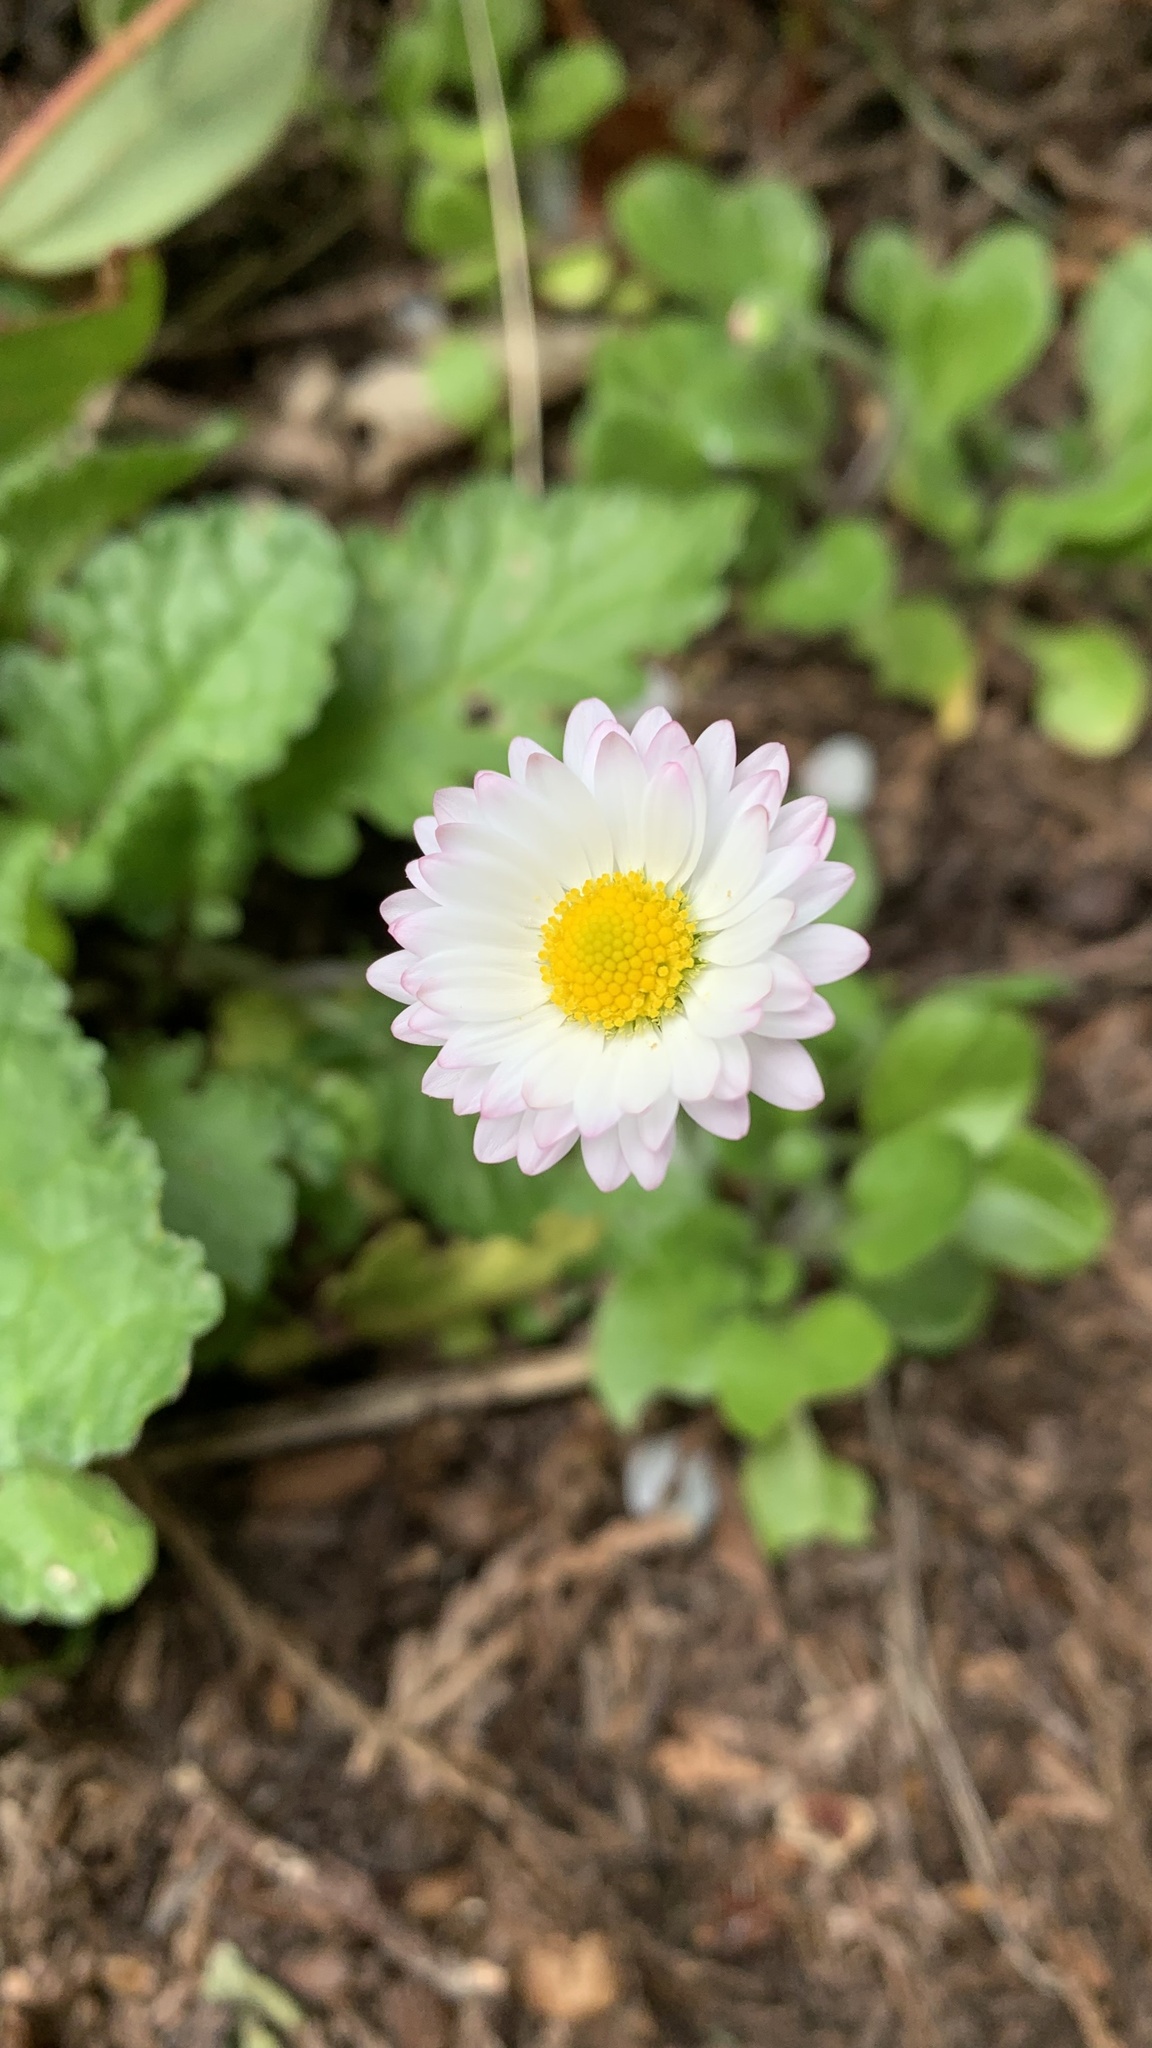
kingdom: Plantae
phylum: Tracheophyta
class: Magnoliopsida
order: Asterales
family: Asteraceae
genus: Bellis
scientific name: Bellis perennis
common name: Lawndaisy
